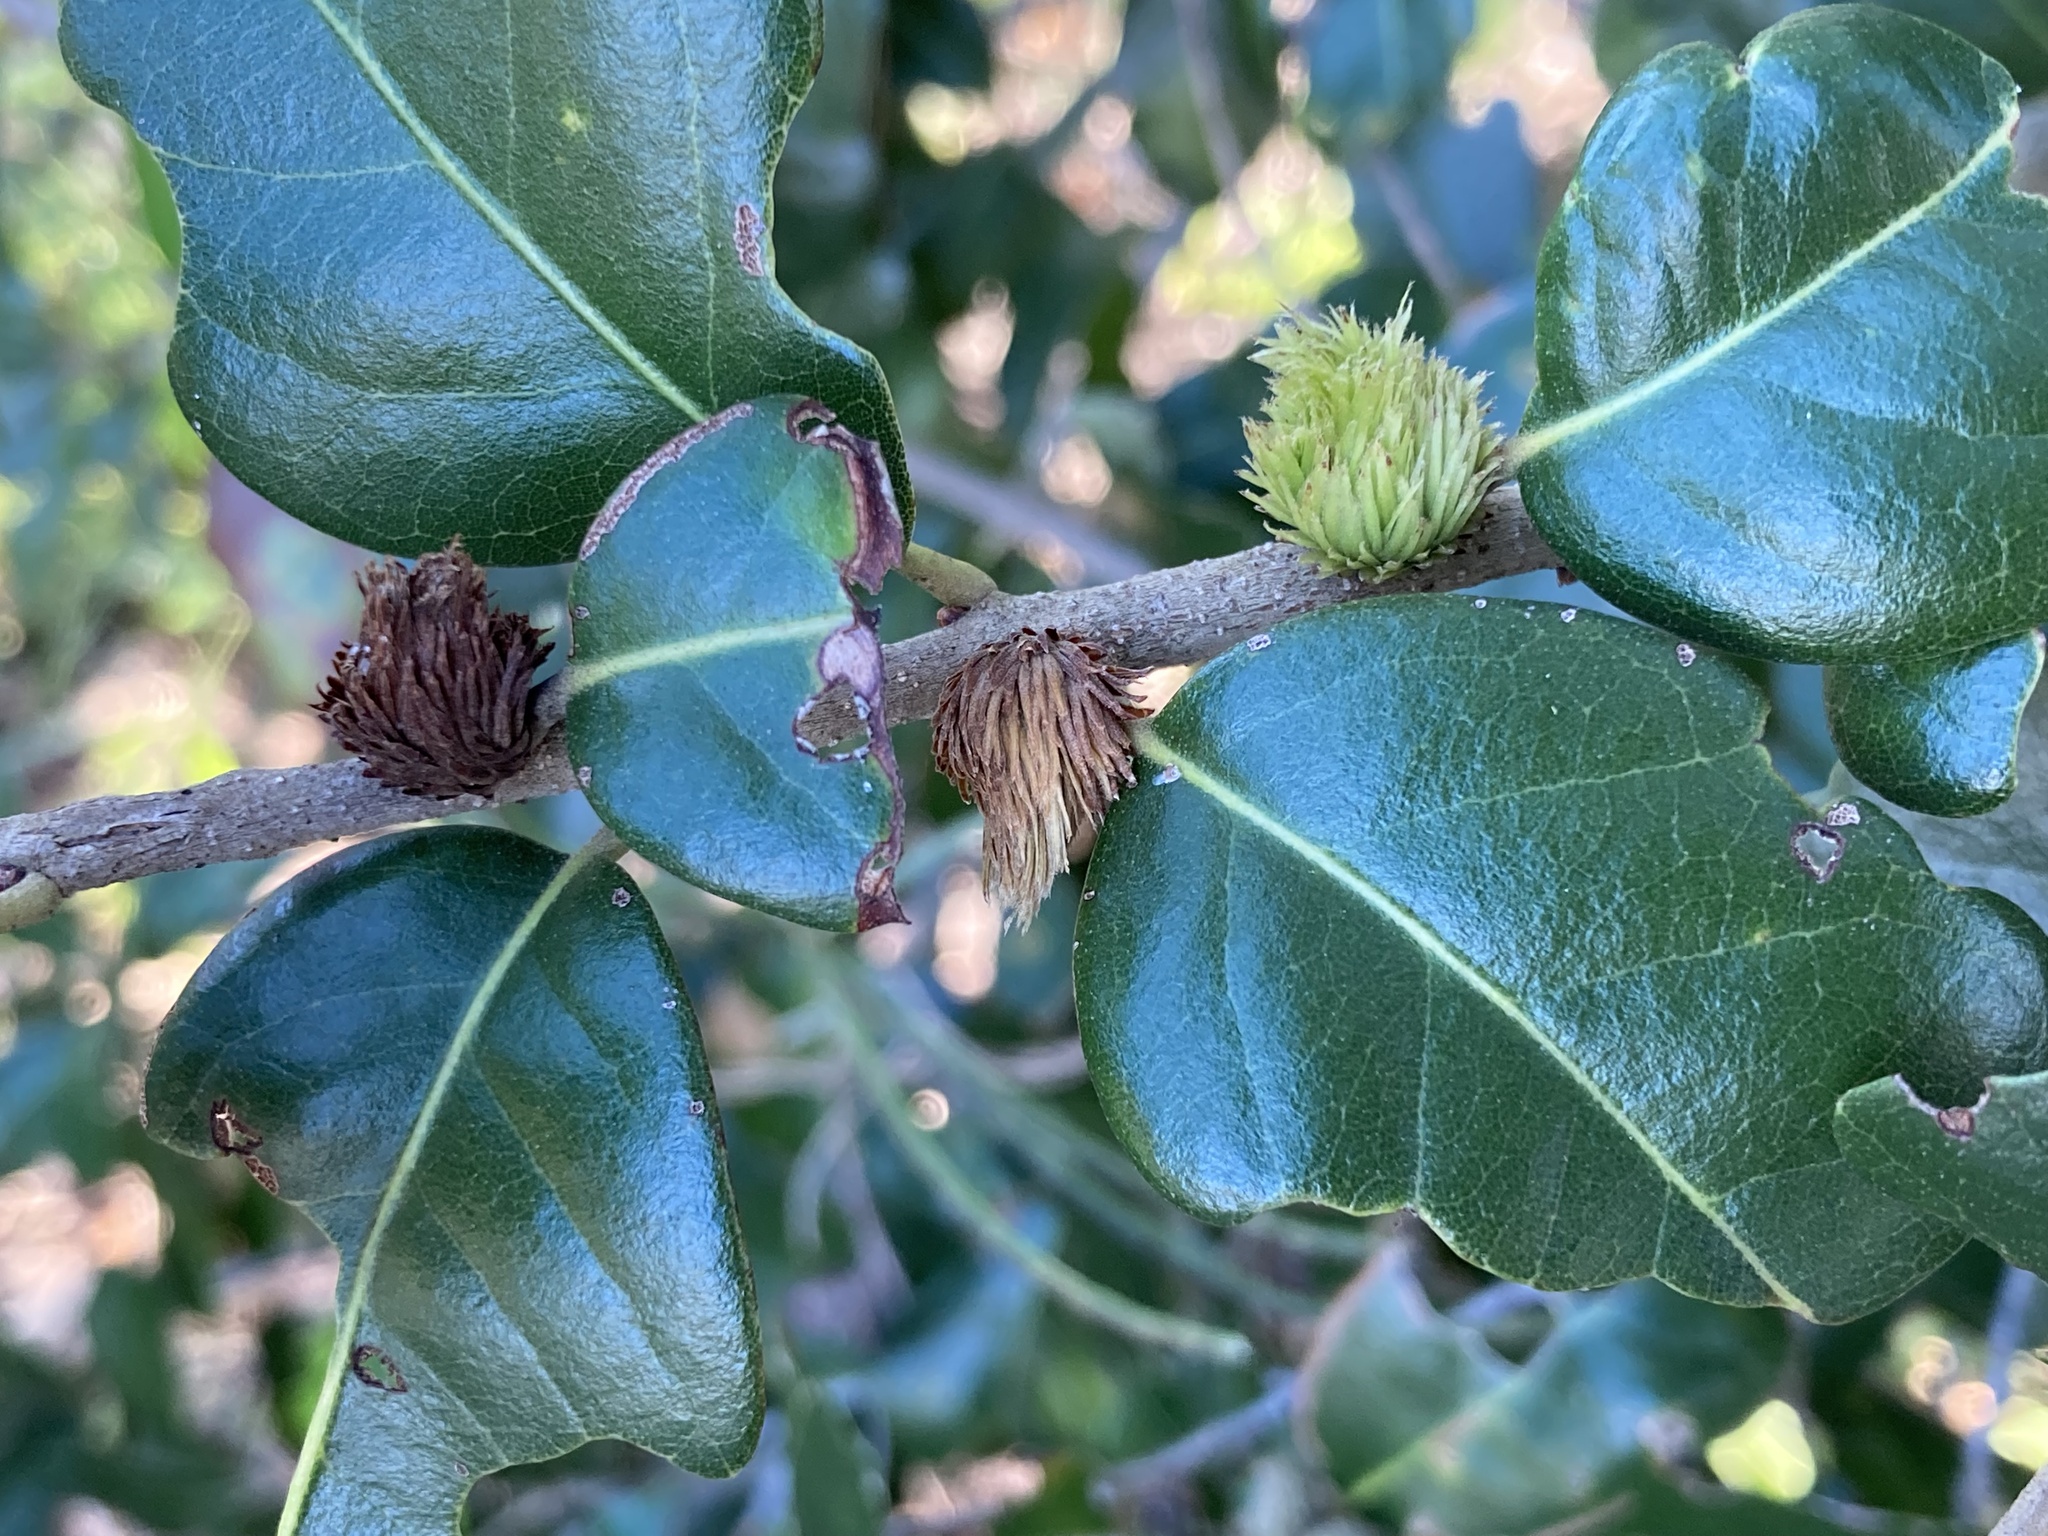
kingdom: Animalia
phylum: Arthropoda
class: Insecta
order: Hymenoptera
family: Cynipidae
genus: Andricus
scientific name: Andricus quercusfoliatus
